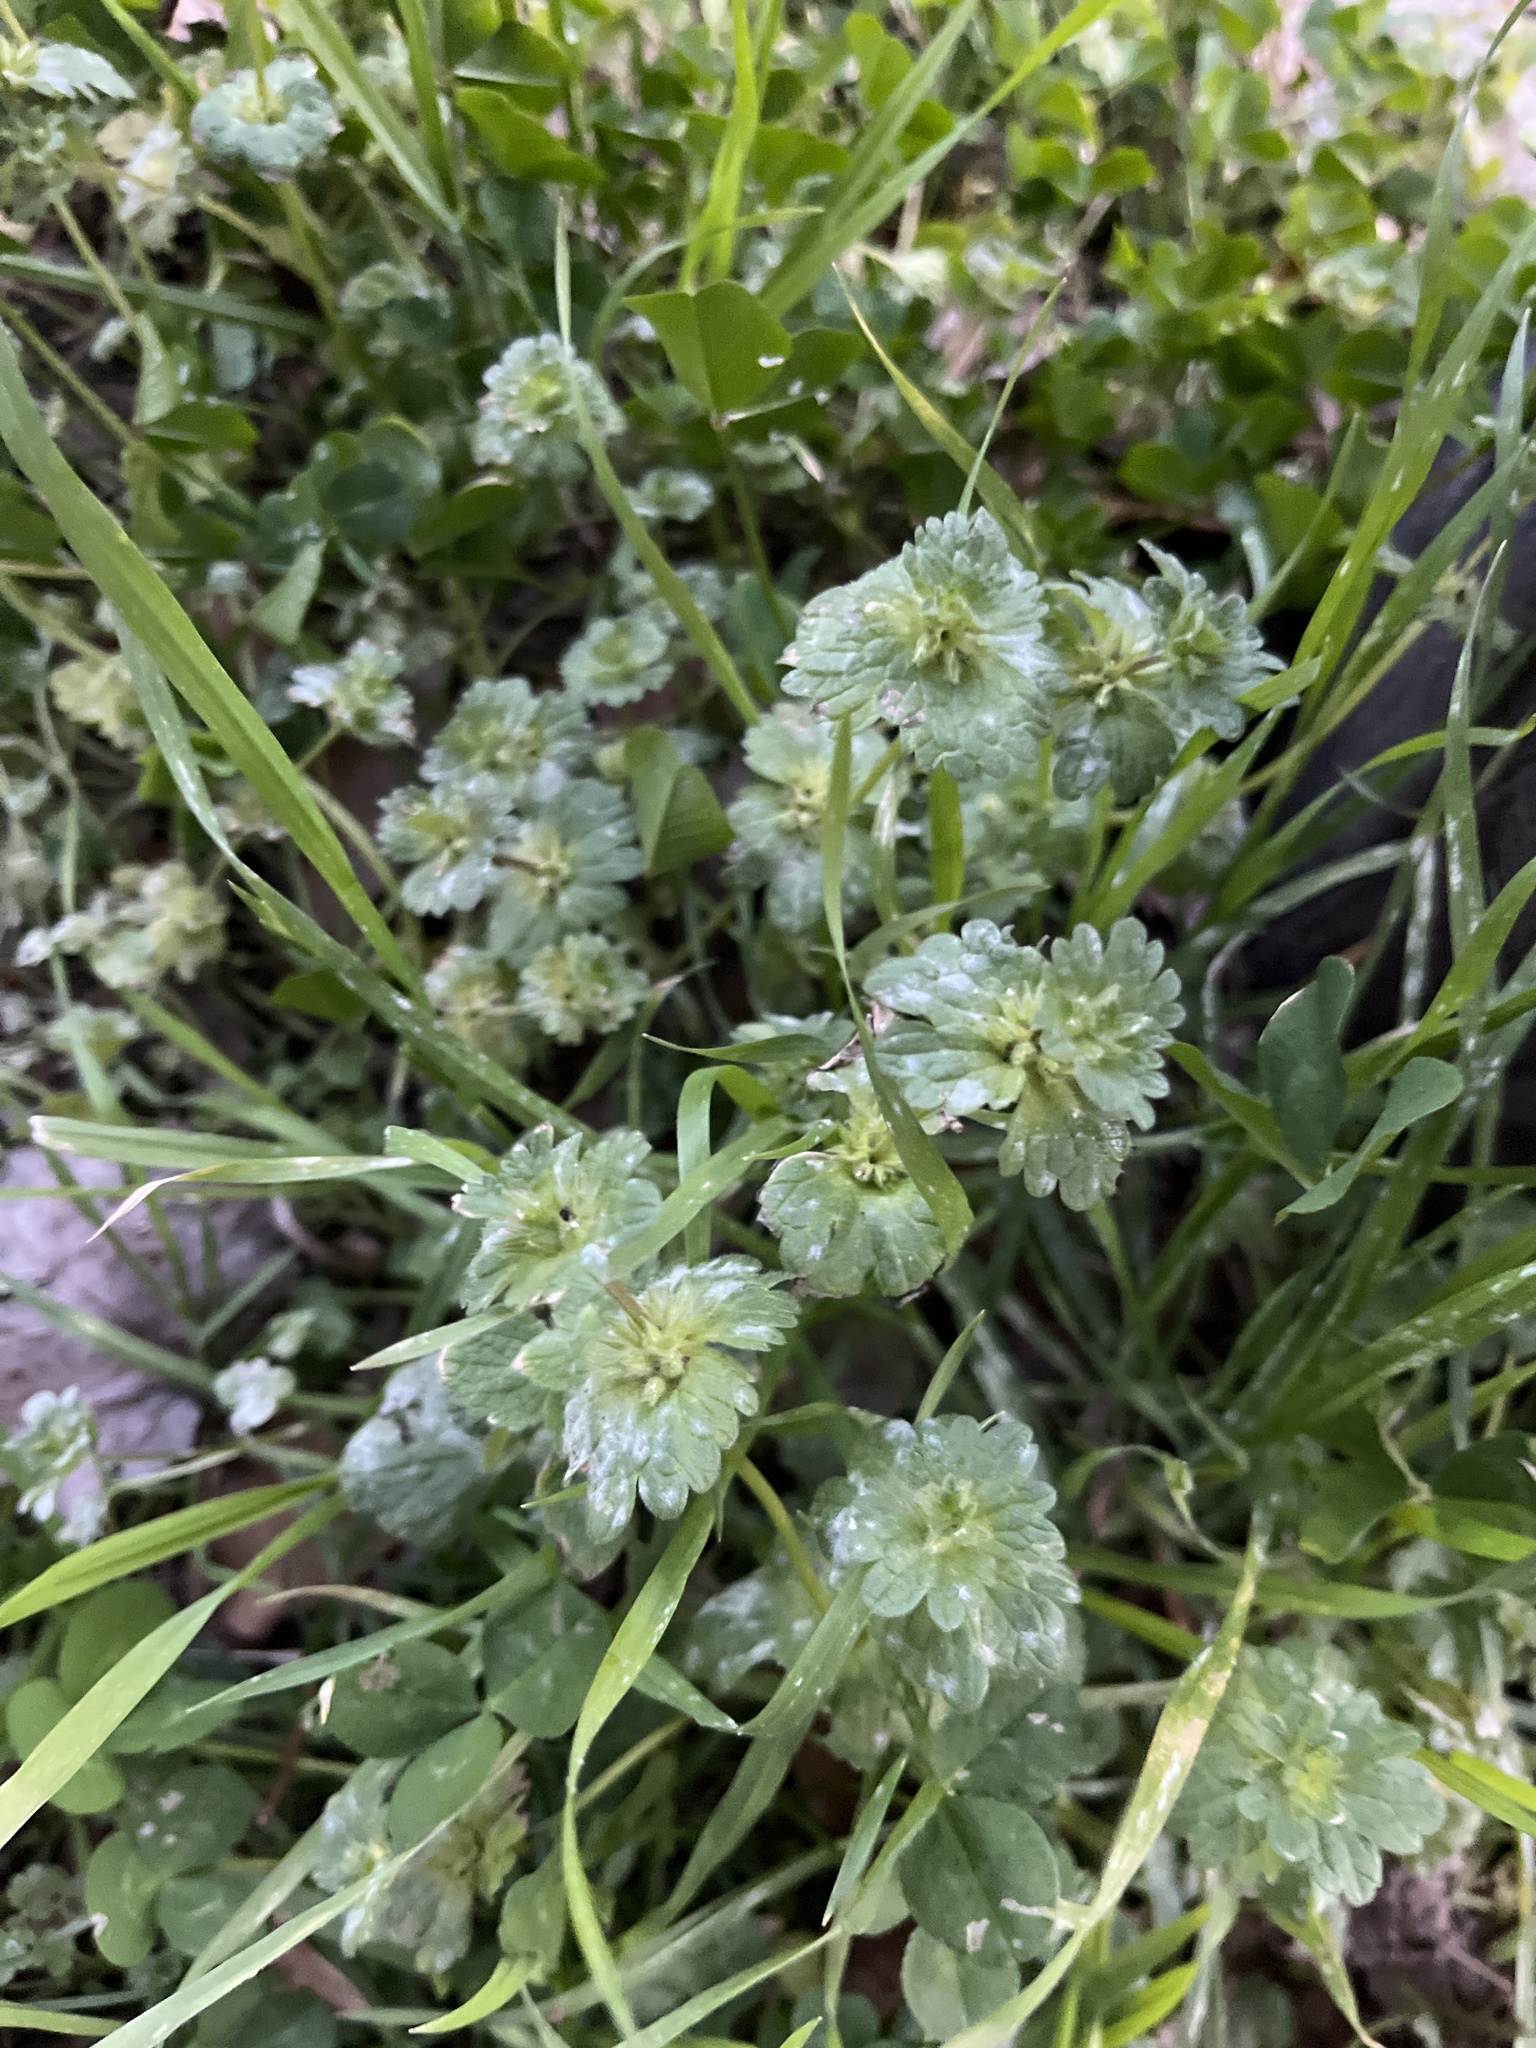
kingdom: Plantae
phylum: Tracheophyta
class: Magnoliopsida
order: Lamiales
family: Lamiaceae
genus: Lamium
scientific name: Lamium amplexicaule
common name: Henbit dead-nettle
